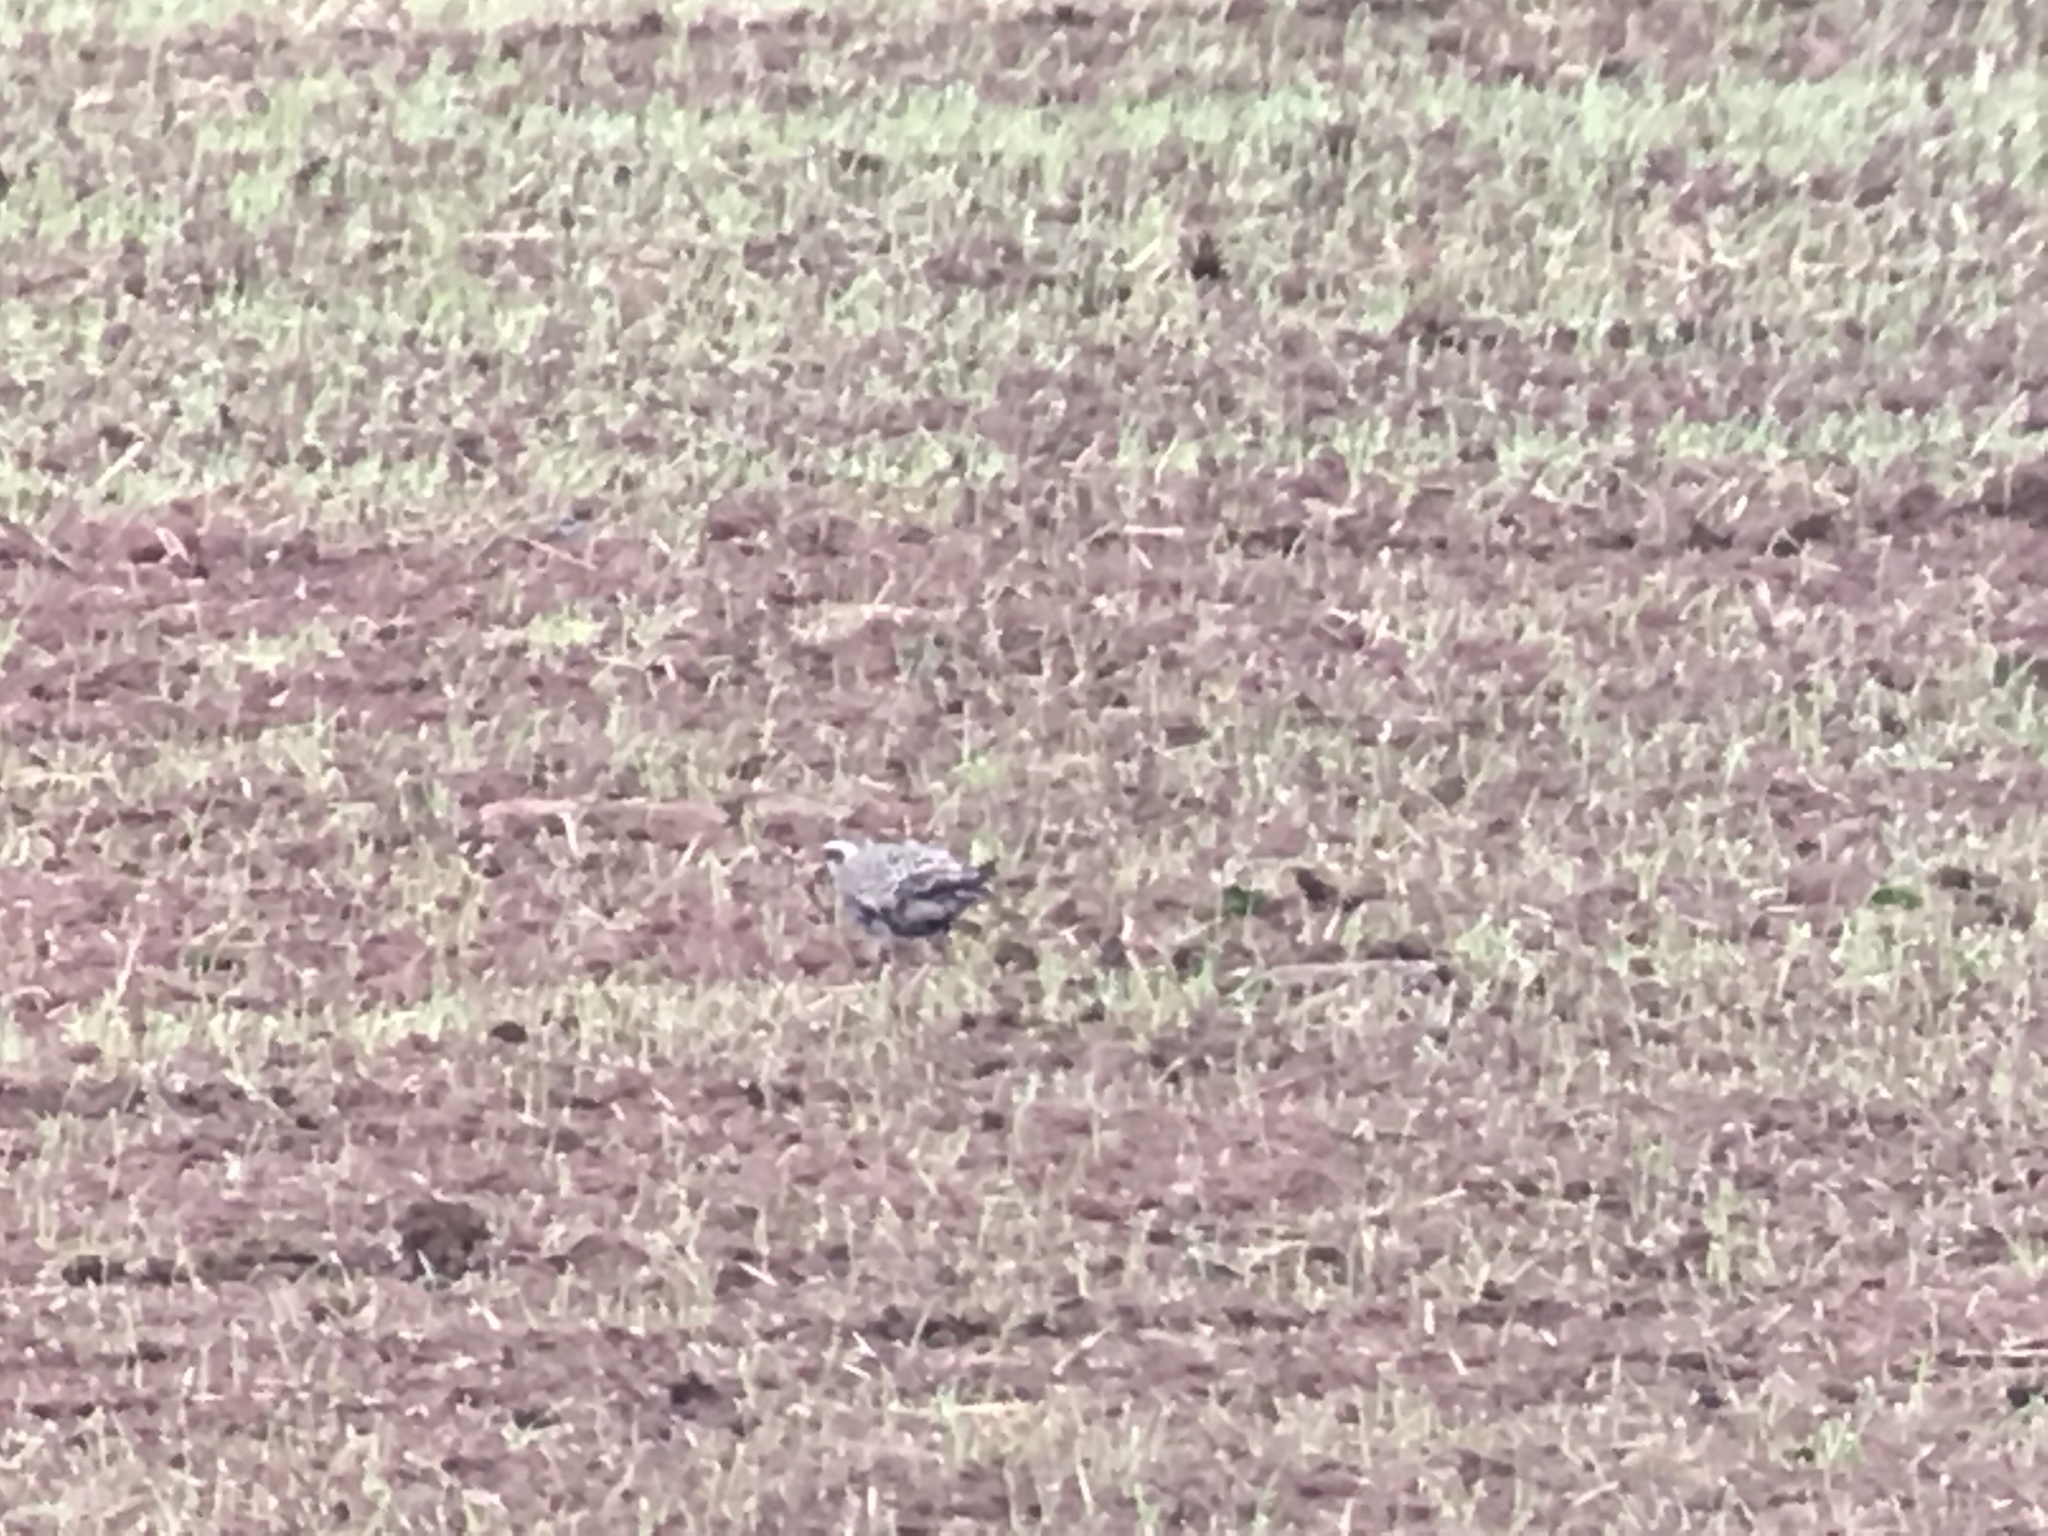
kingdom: Animalia
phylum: Chordata
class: Aves
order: Charadriiformes
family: Charadriidae
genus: Pluvialis
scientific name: Pluvialis dominica
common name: American golden plover
